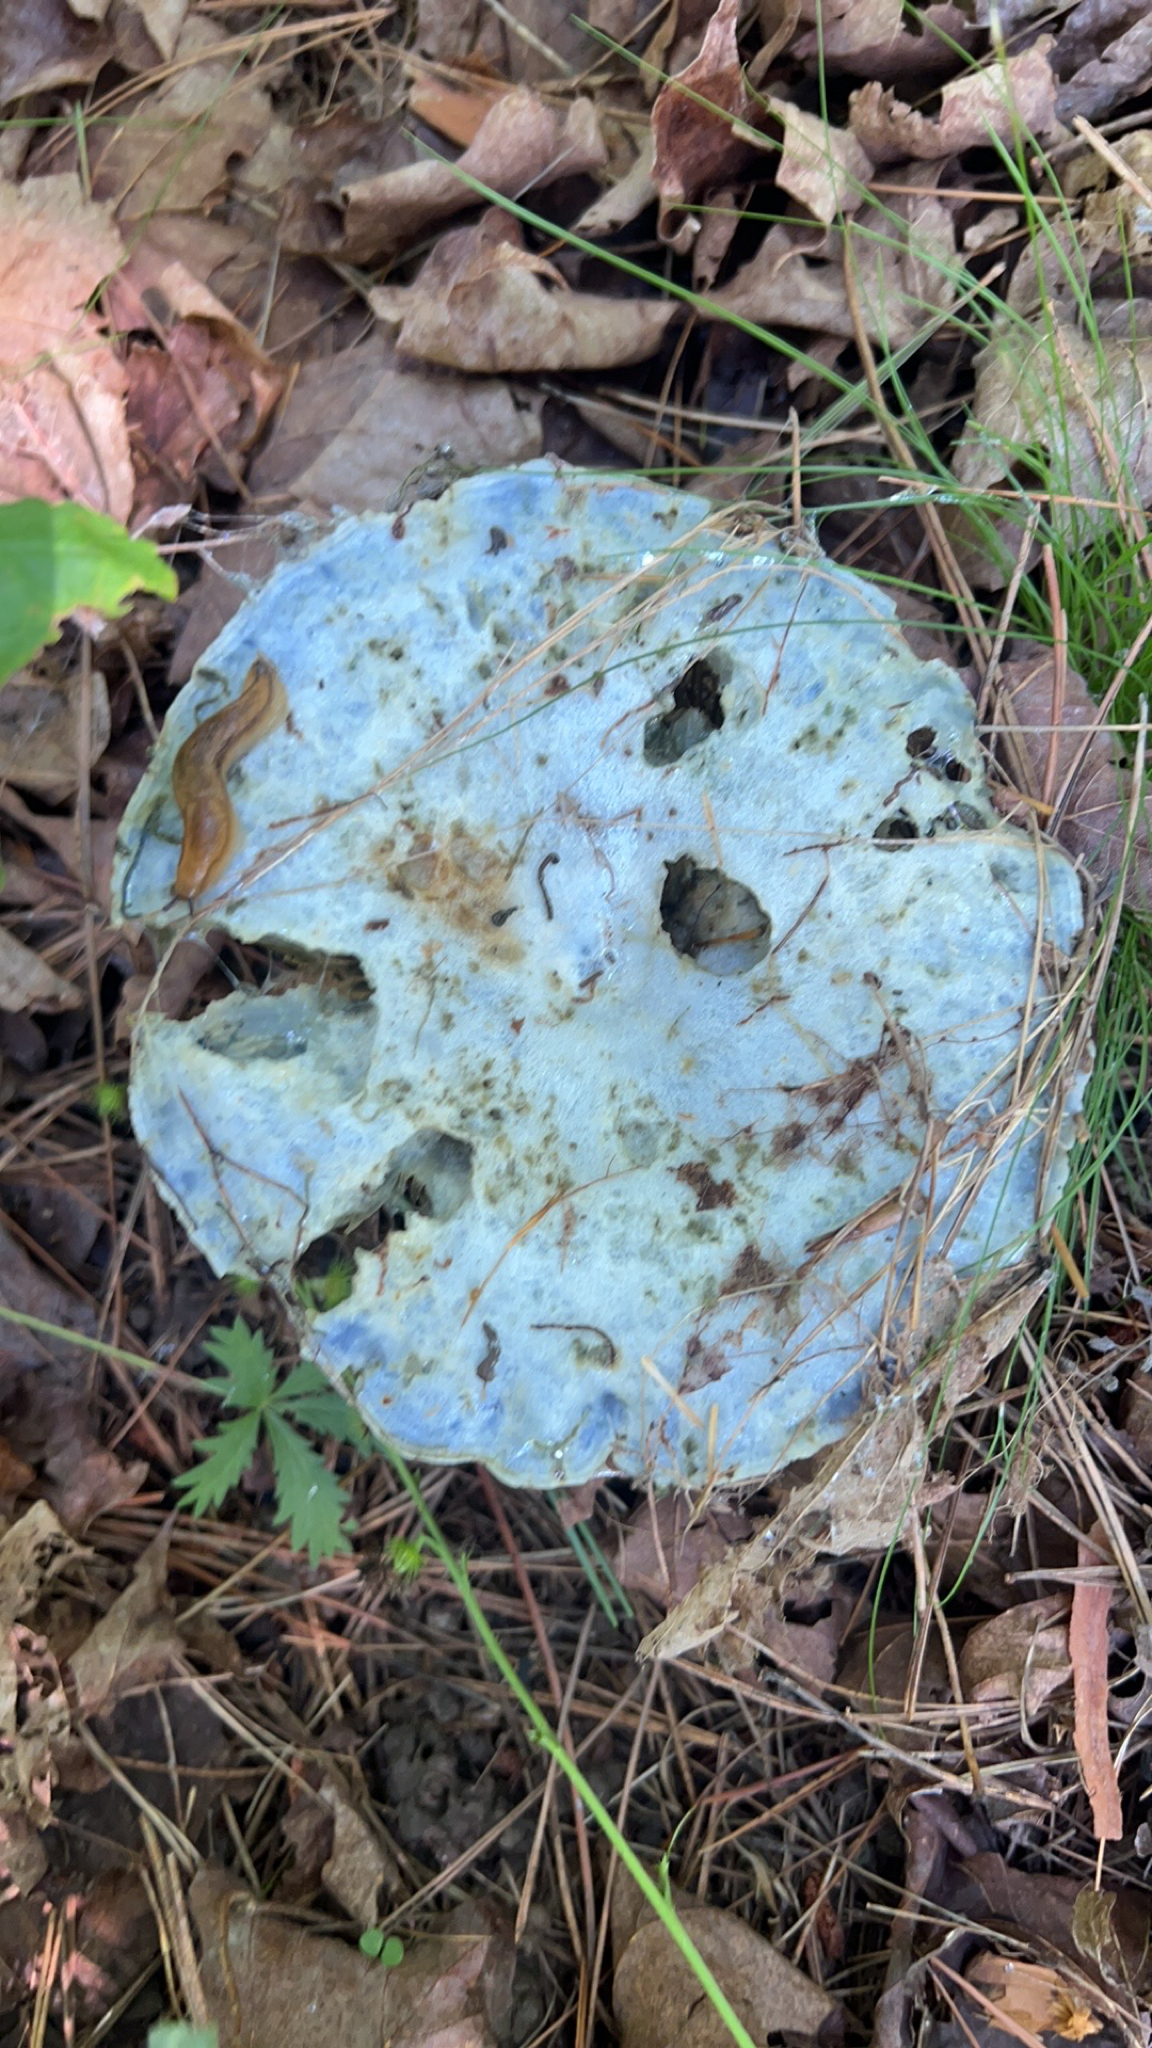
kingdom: Fungi
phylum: Basidiomycota
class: Agaricomycetes
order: Russulales
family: Russulaceae
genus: Lactarius
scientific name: Lactarius indigo
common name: Indigo milk cap
